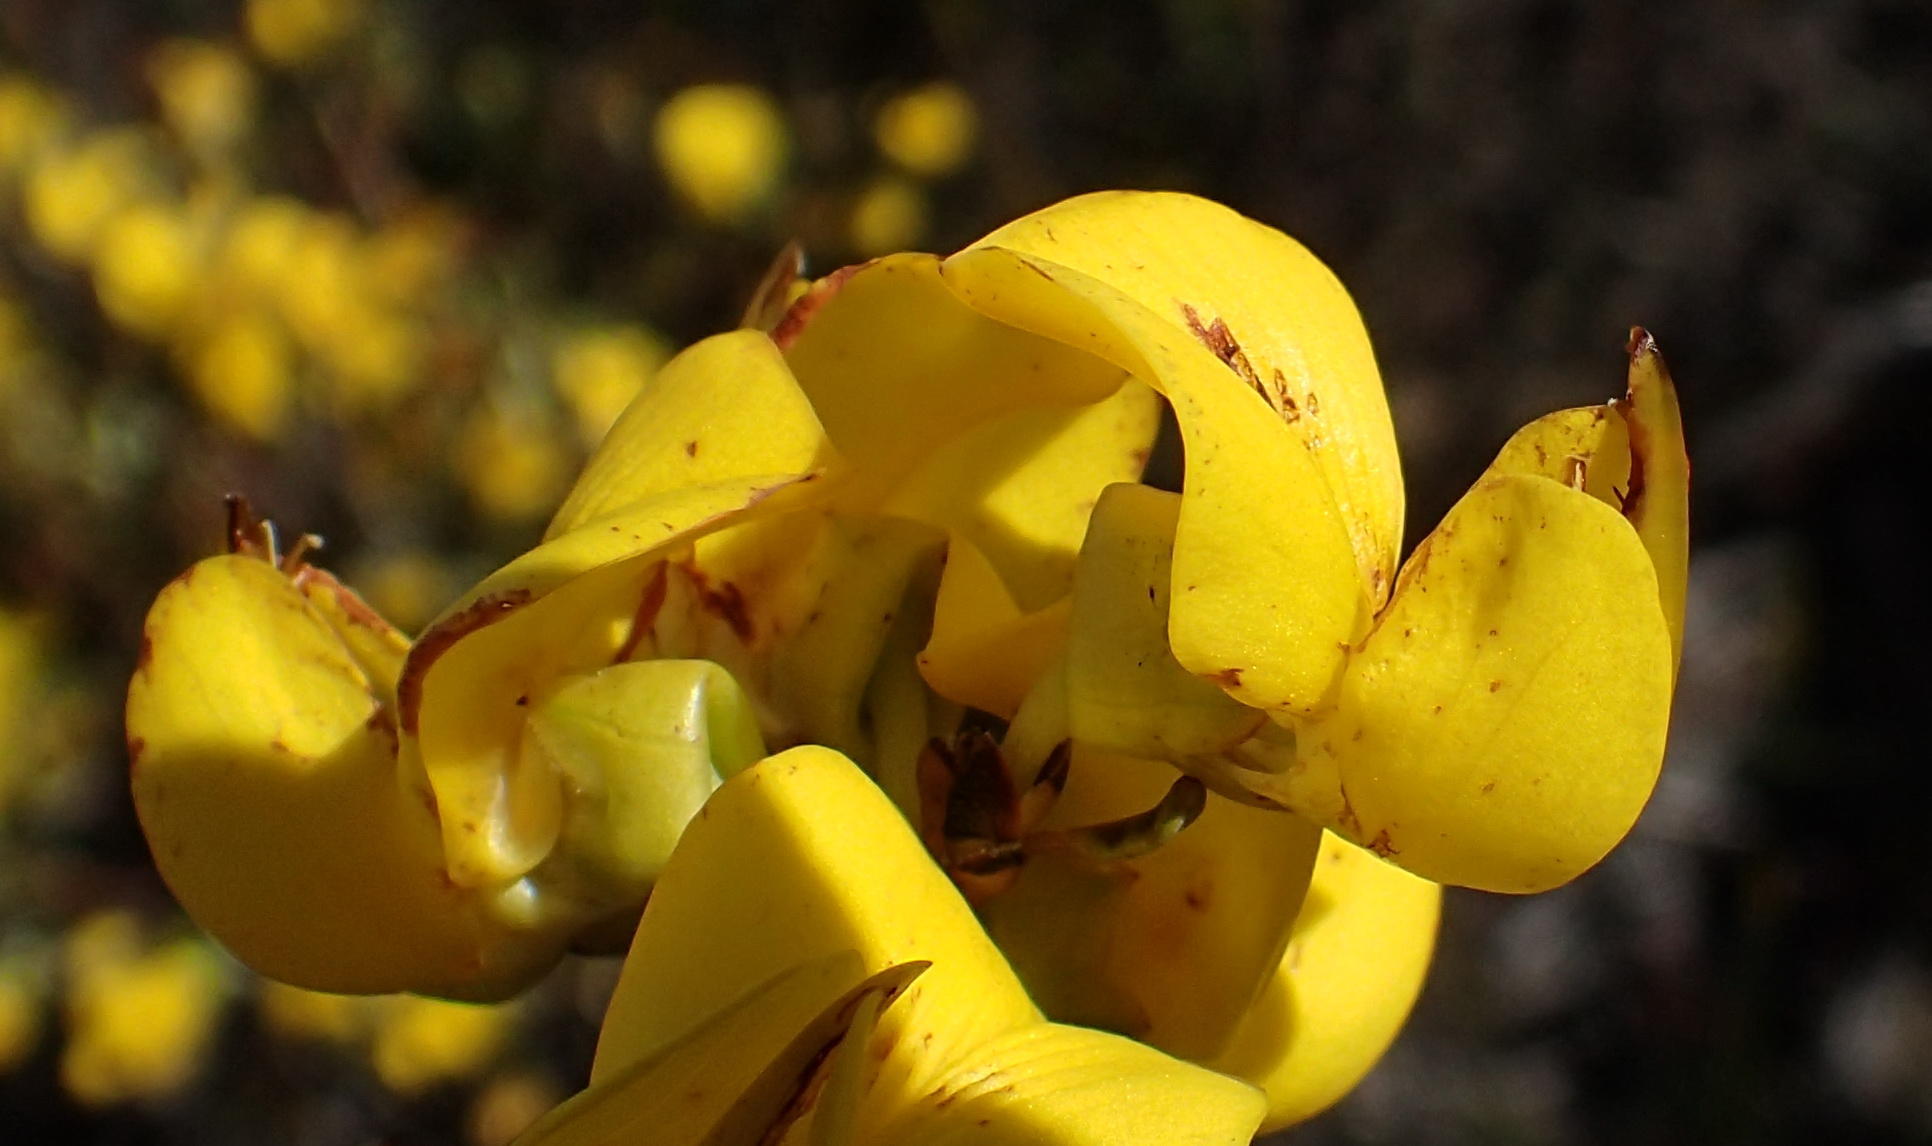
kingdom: Plantae
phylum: Tracheophyta
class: Magnoliopsida
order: Fabales
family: Fabaceae
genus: Cyclopia
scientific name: Cyclopia intermedia
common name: Mountain tea
